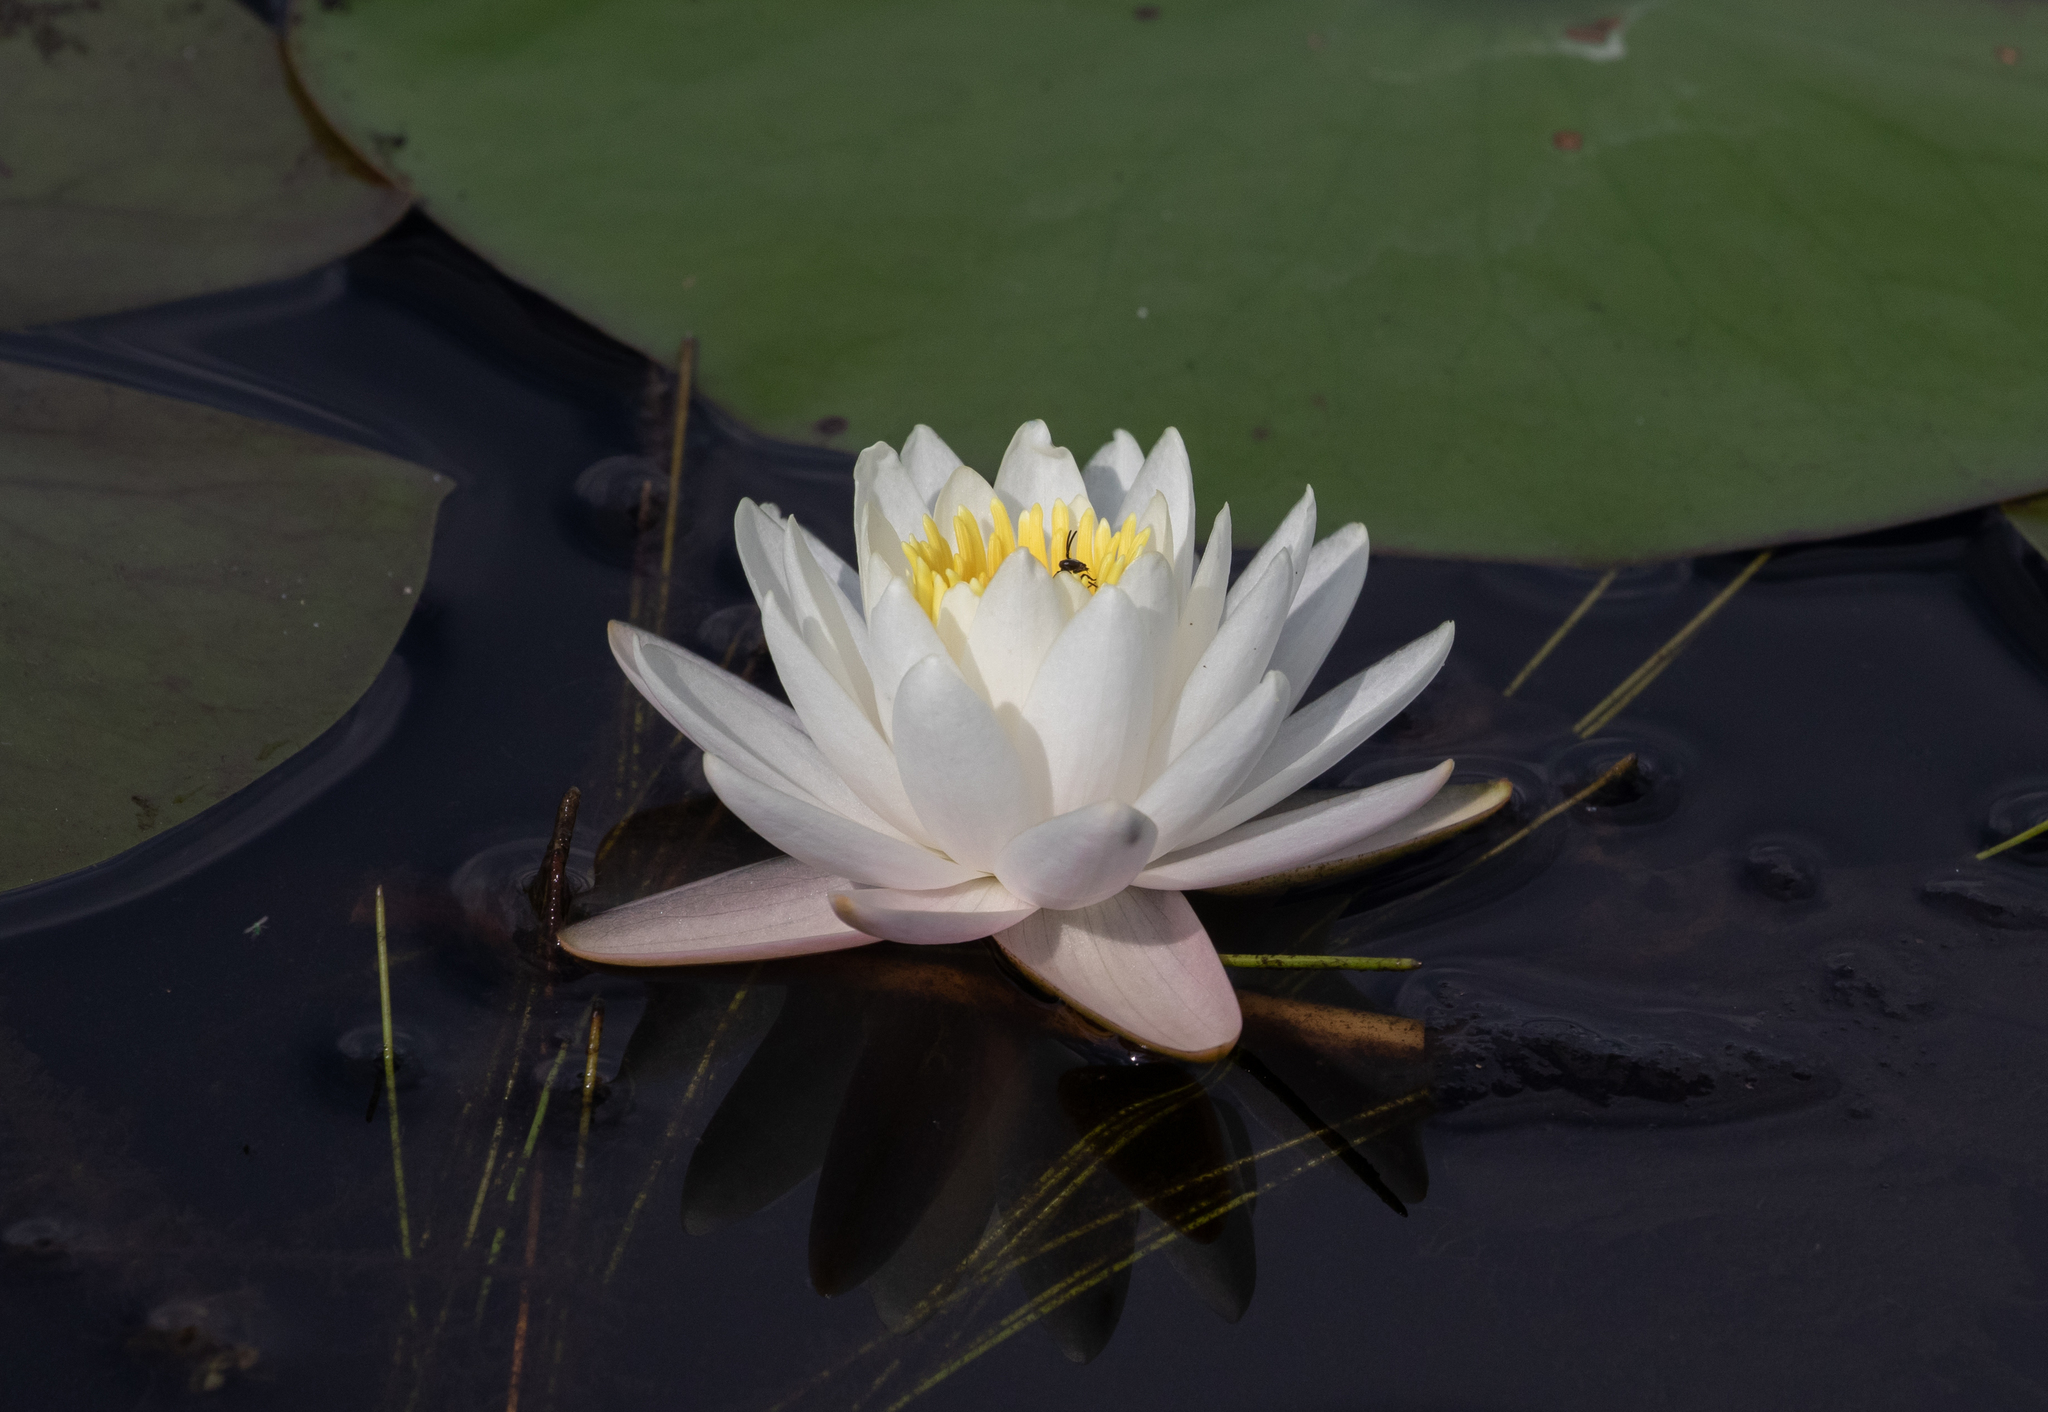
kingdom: Plantae
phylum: Tracheophyta
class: Magnoliopsida
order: Nymphaeales
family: Nymphaeaceae
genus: Nymphaea
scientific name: Nymphaea odorata
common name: Fragrant water-lily
